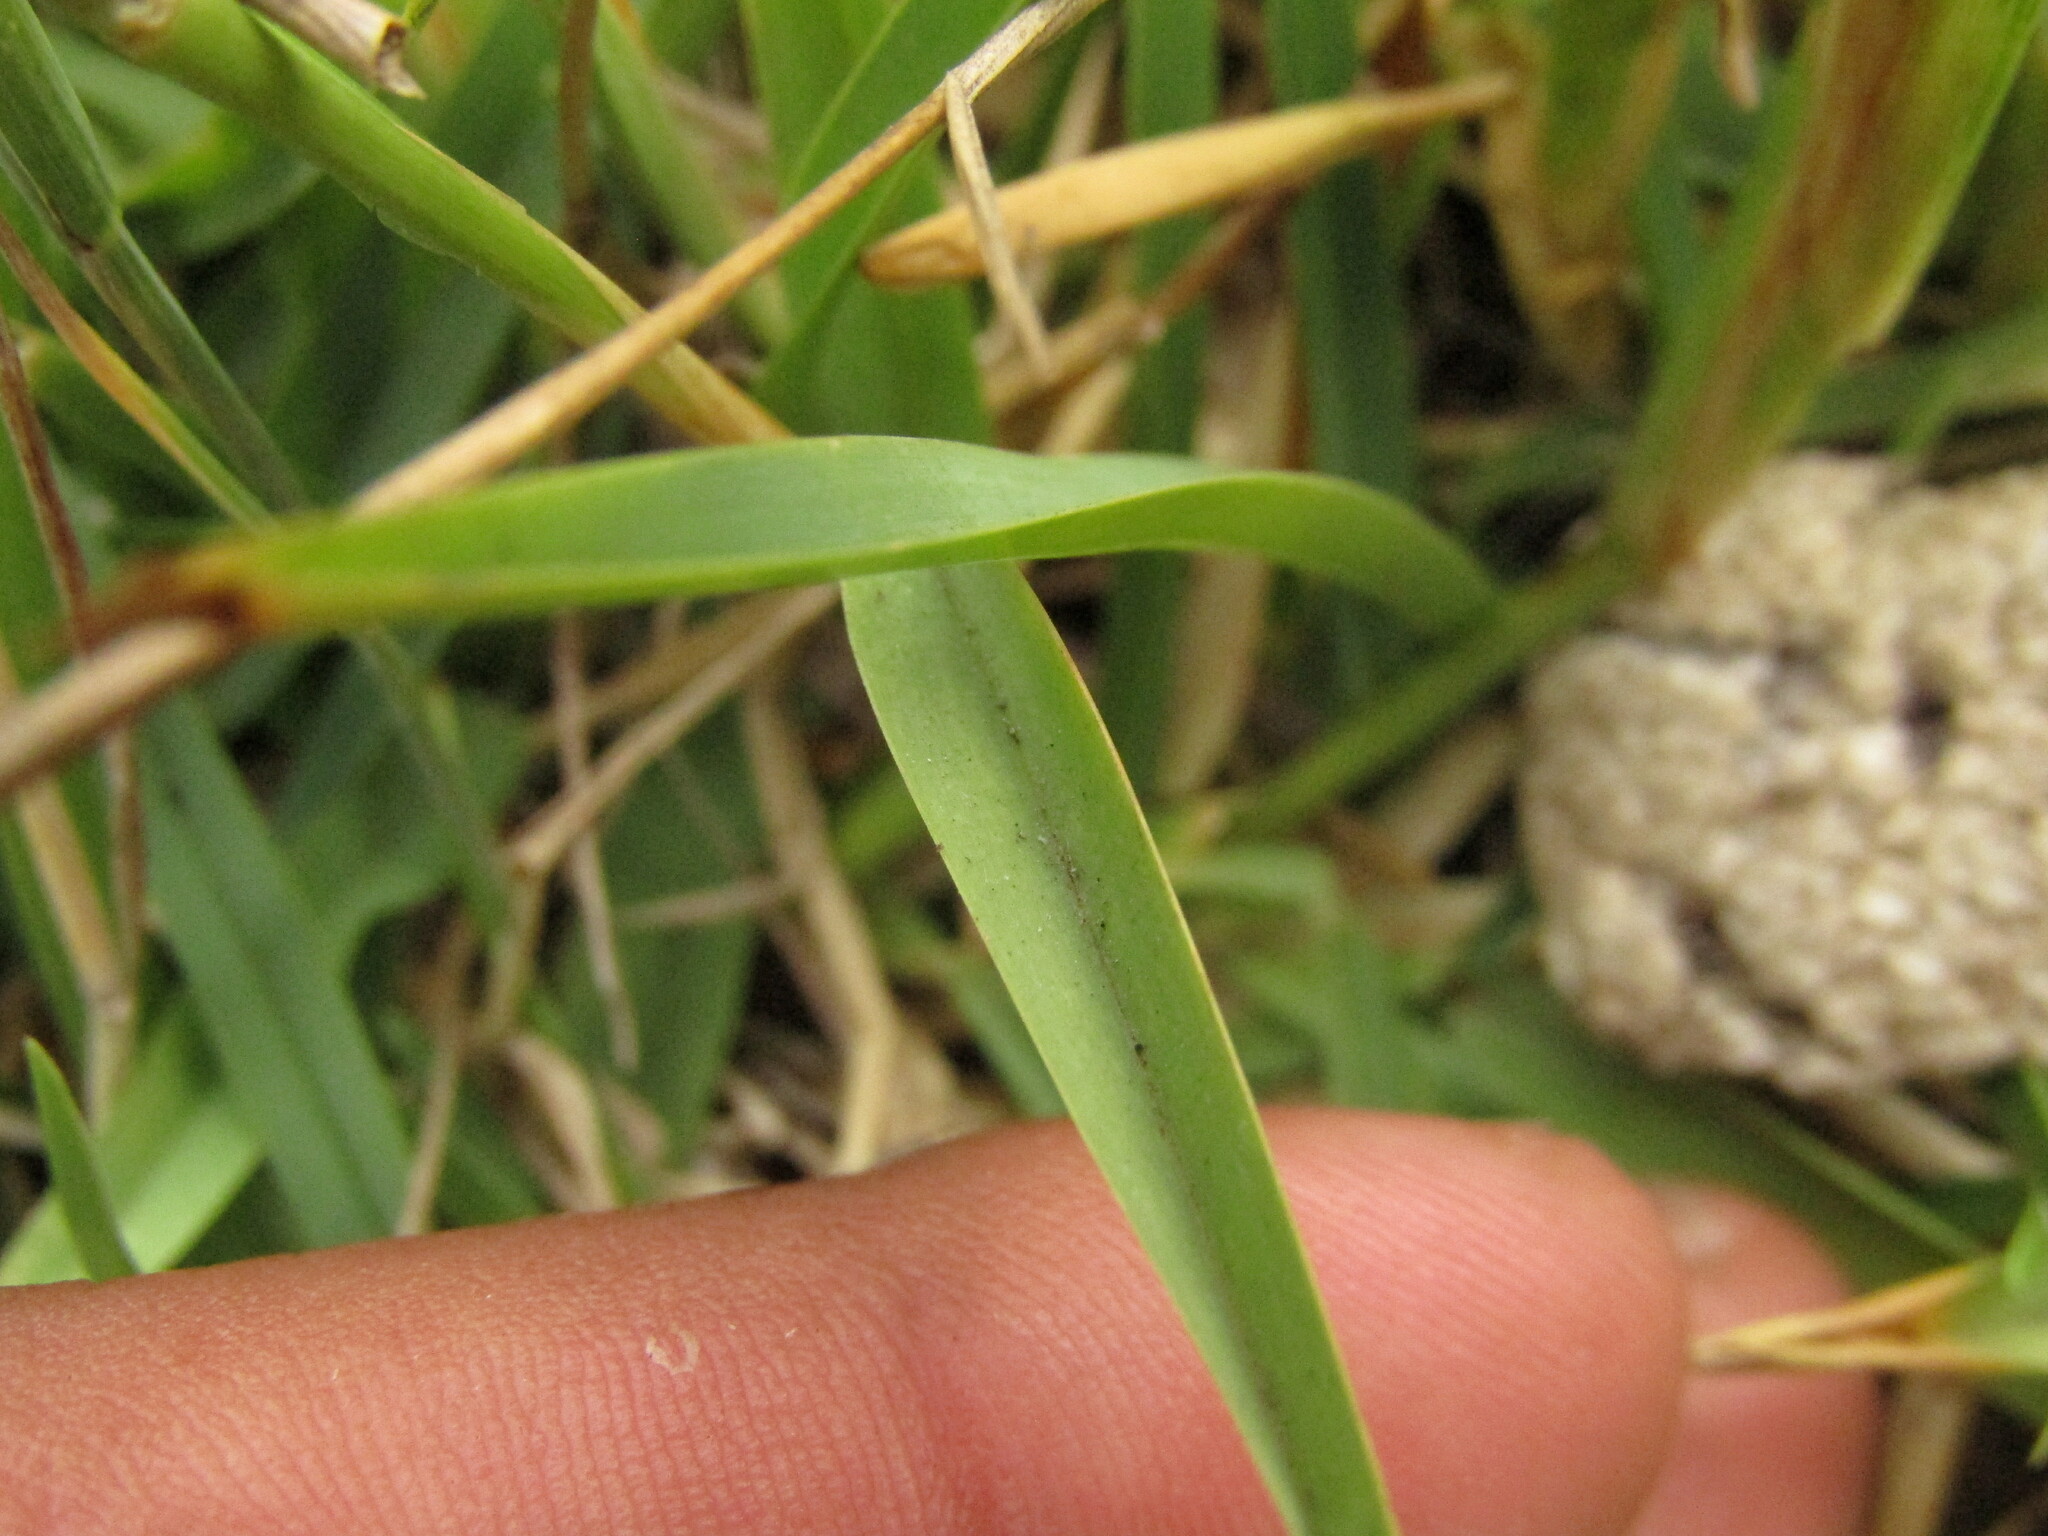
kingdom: Plantae
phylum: Tracheophyta
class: Liliopsida
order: Poales
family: Poaceae
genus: Stenotaphrum
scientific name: Stenotaphrum secundatum
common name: St. augustine grass
